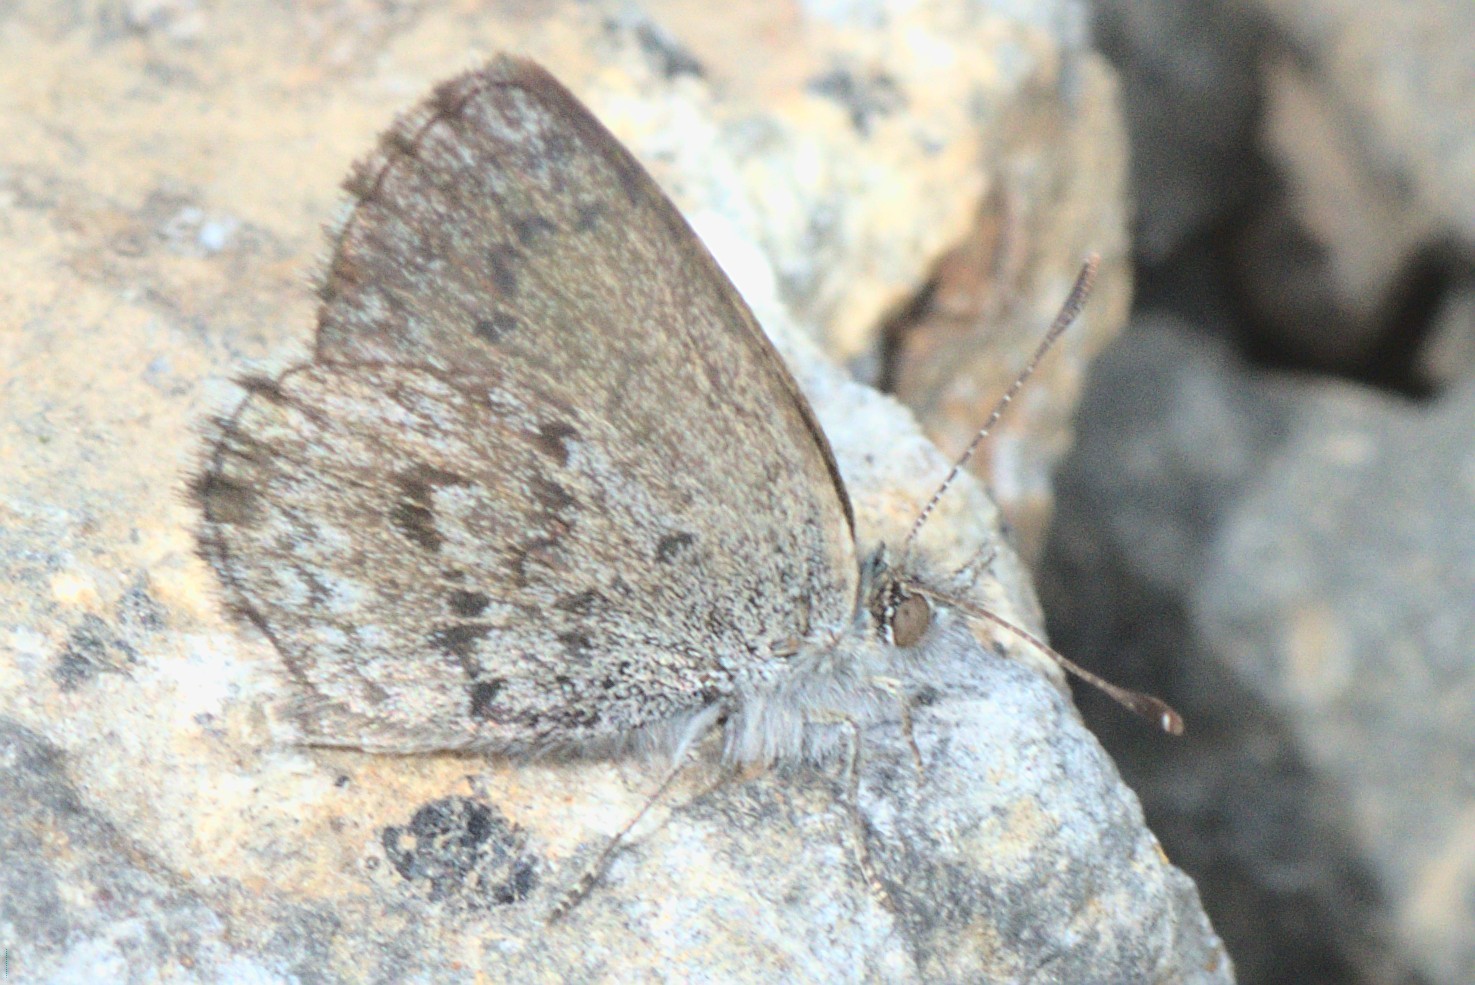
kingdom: Animalia
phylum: Arthropoda
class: Insecta
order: Lepidoptera
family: Lycaenidae
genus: Zizina
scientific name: Zizina oxleyi
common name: Southern blue
